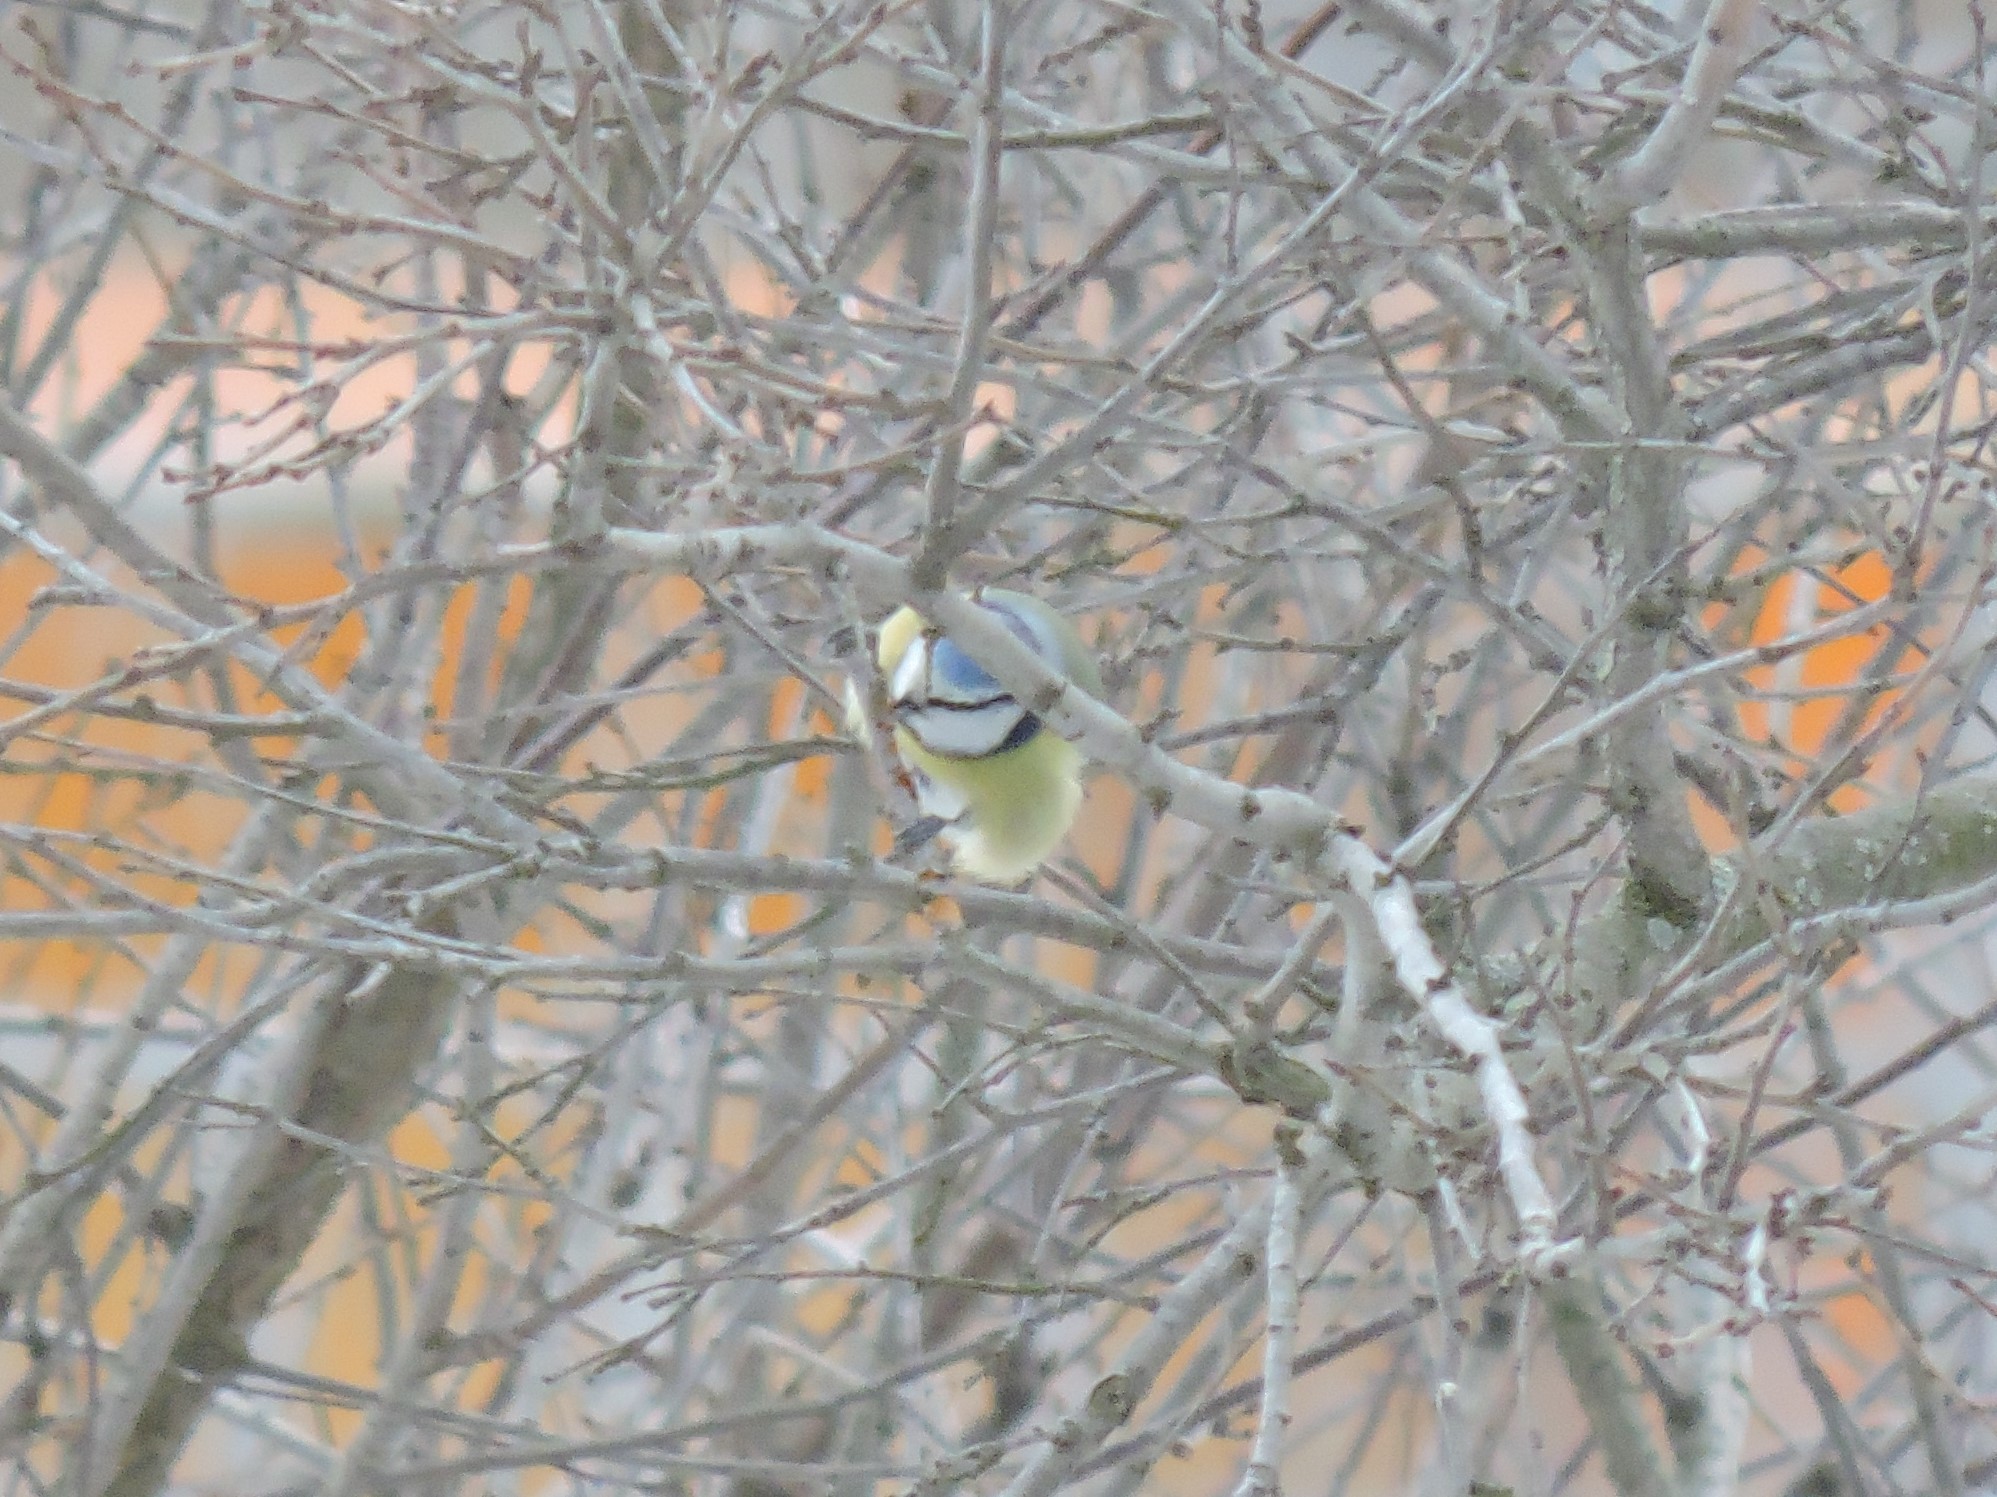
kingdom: Animalia
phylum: Chordata
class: Aves
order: Passeriformes
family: Paridae
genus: Cyanistes
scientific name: Cyanistes caeruleus
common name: Eurasian blue tit
